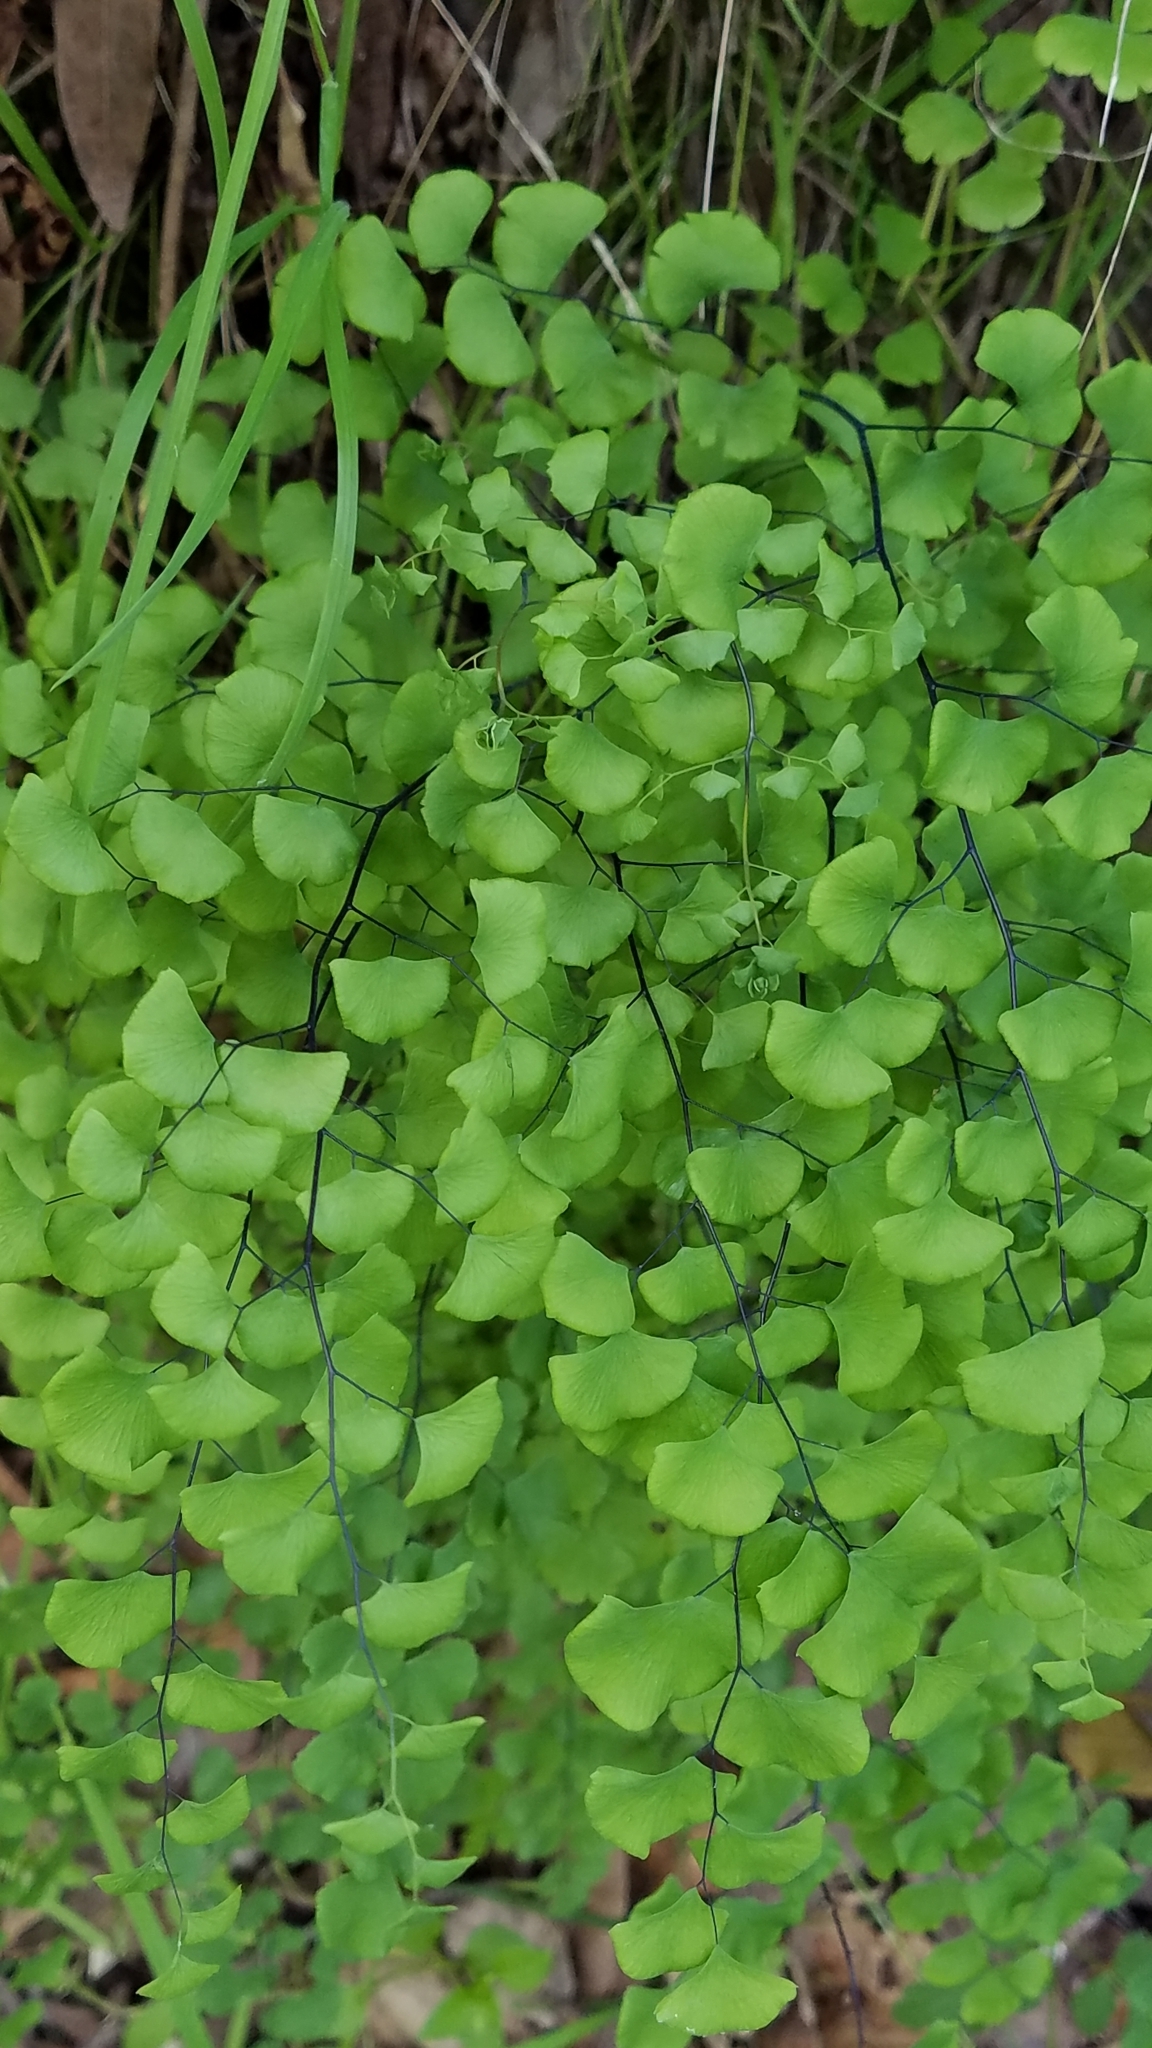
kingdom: Plantae
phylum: Tracheophyta
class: Polypodiopsida
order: Polypodiales
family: Pteridaceae
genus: Adiantum
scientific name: Adiantum jordanii
